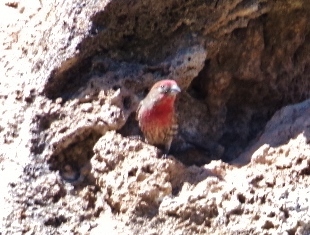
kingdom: Animalia
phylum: Chordata
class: Aves
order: Passeriformes
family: Fringillidae
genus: Haemorhous
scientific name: Haemorhous mexicanus
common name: House finch
